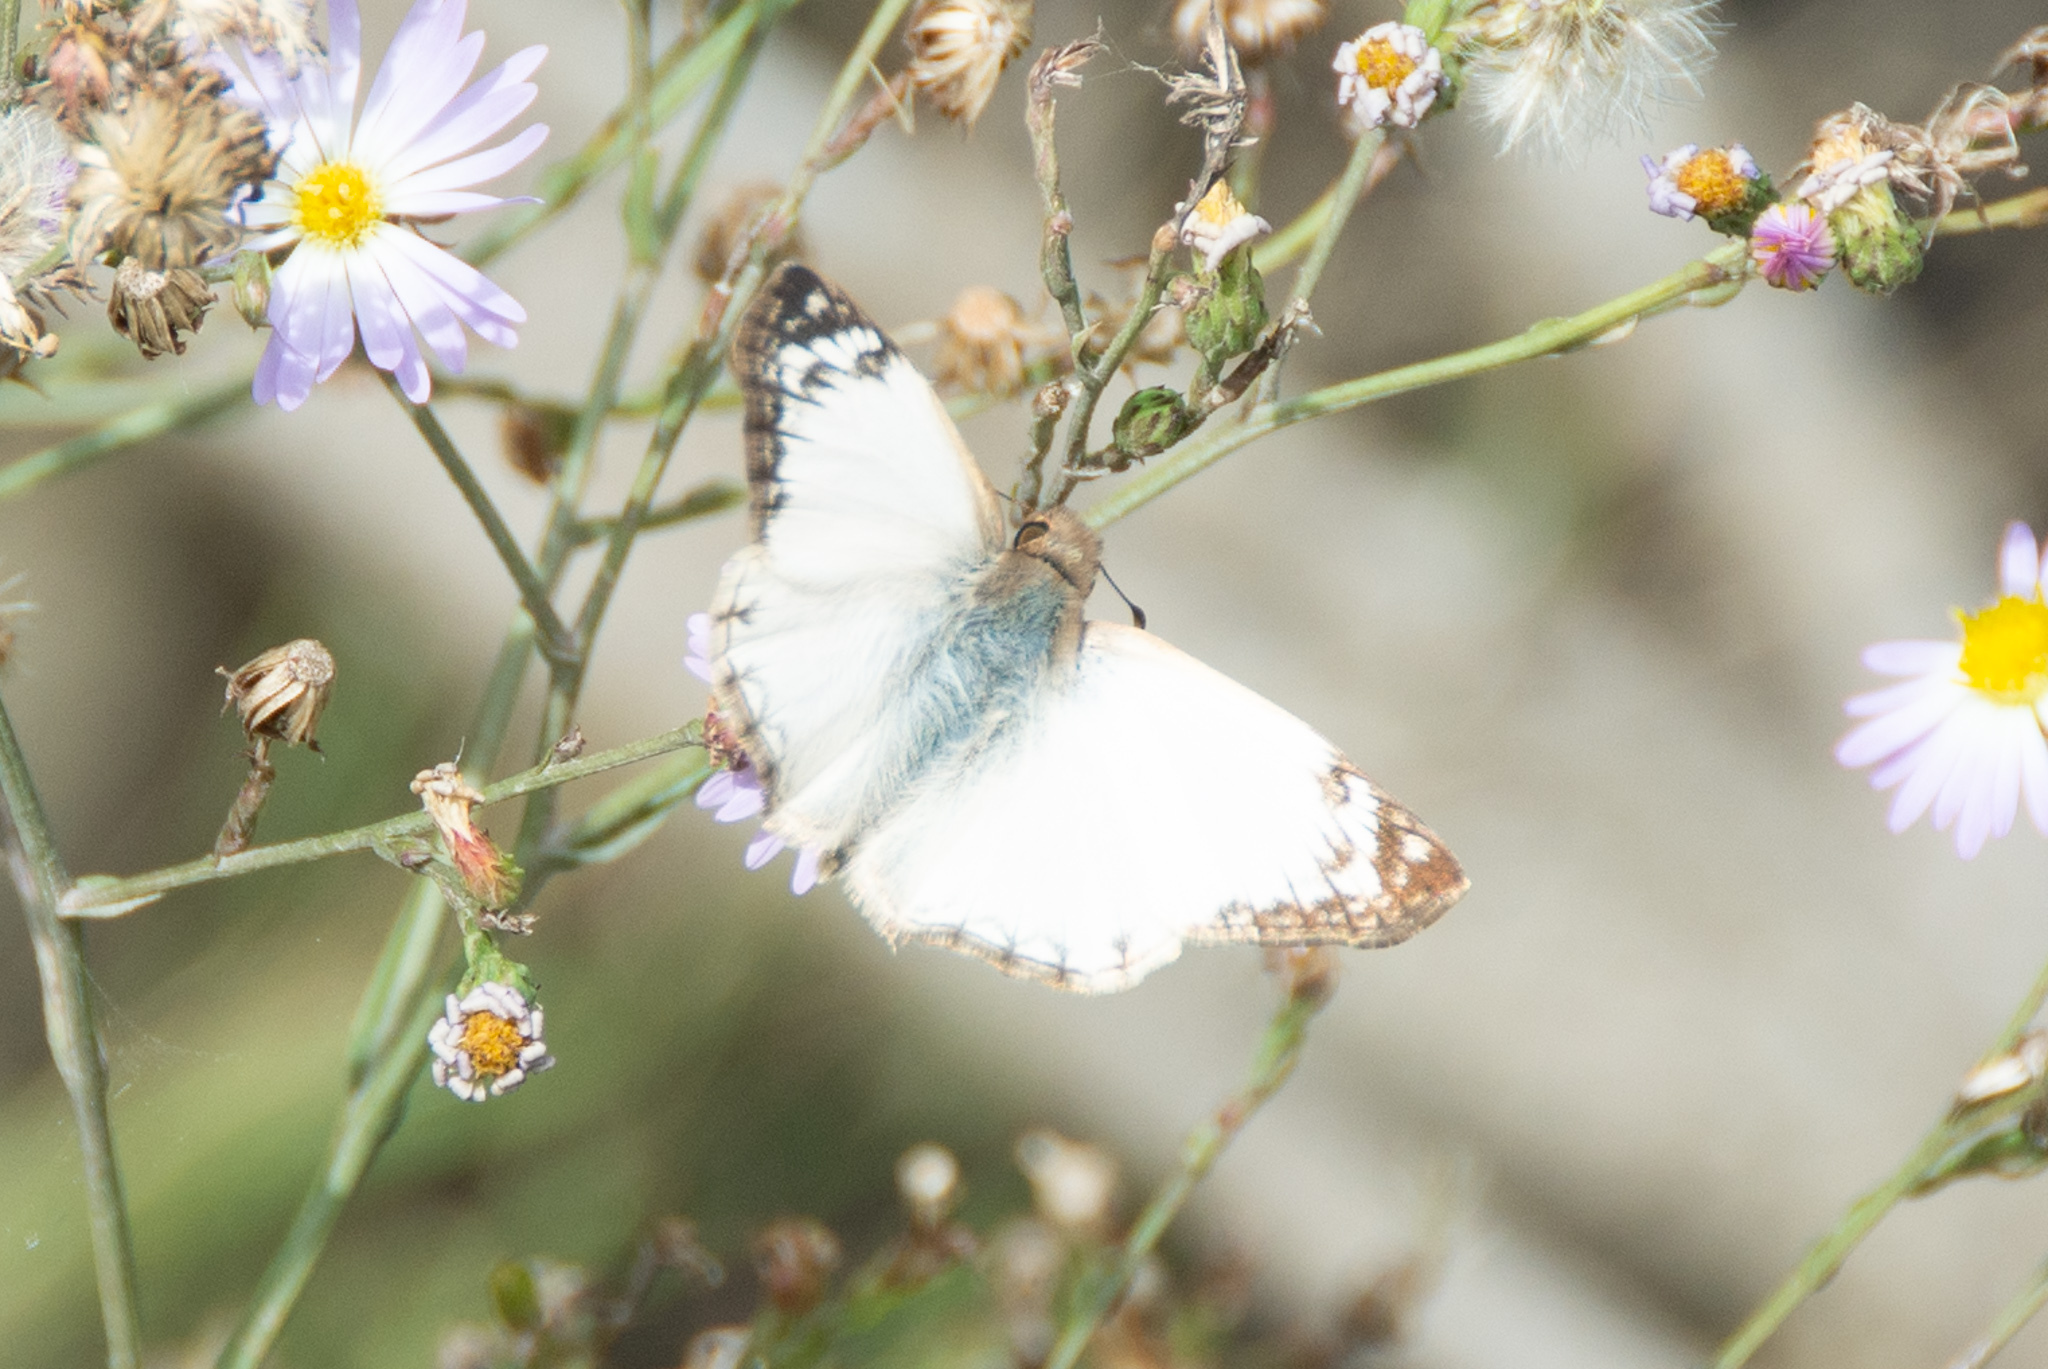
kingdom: Animalia
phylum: Arthropoda
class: Insecta
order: Lepidoptera
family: Hesperiidae
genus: Heliopetes
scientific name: Heliopetes laviana
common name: Laviana white-skipper
